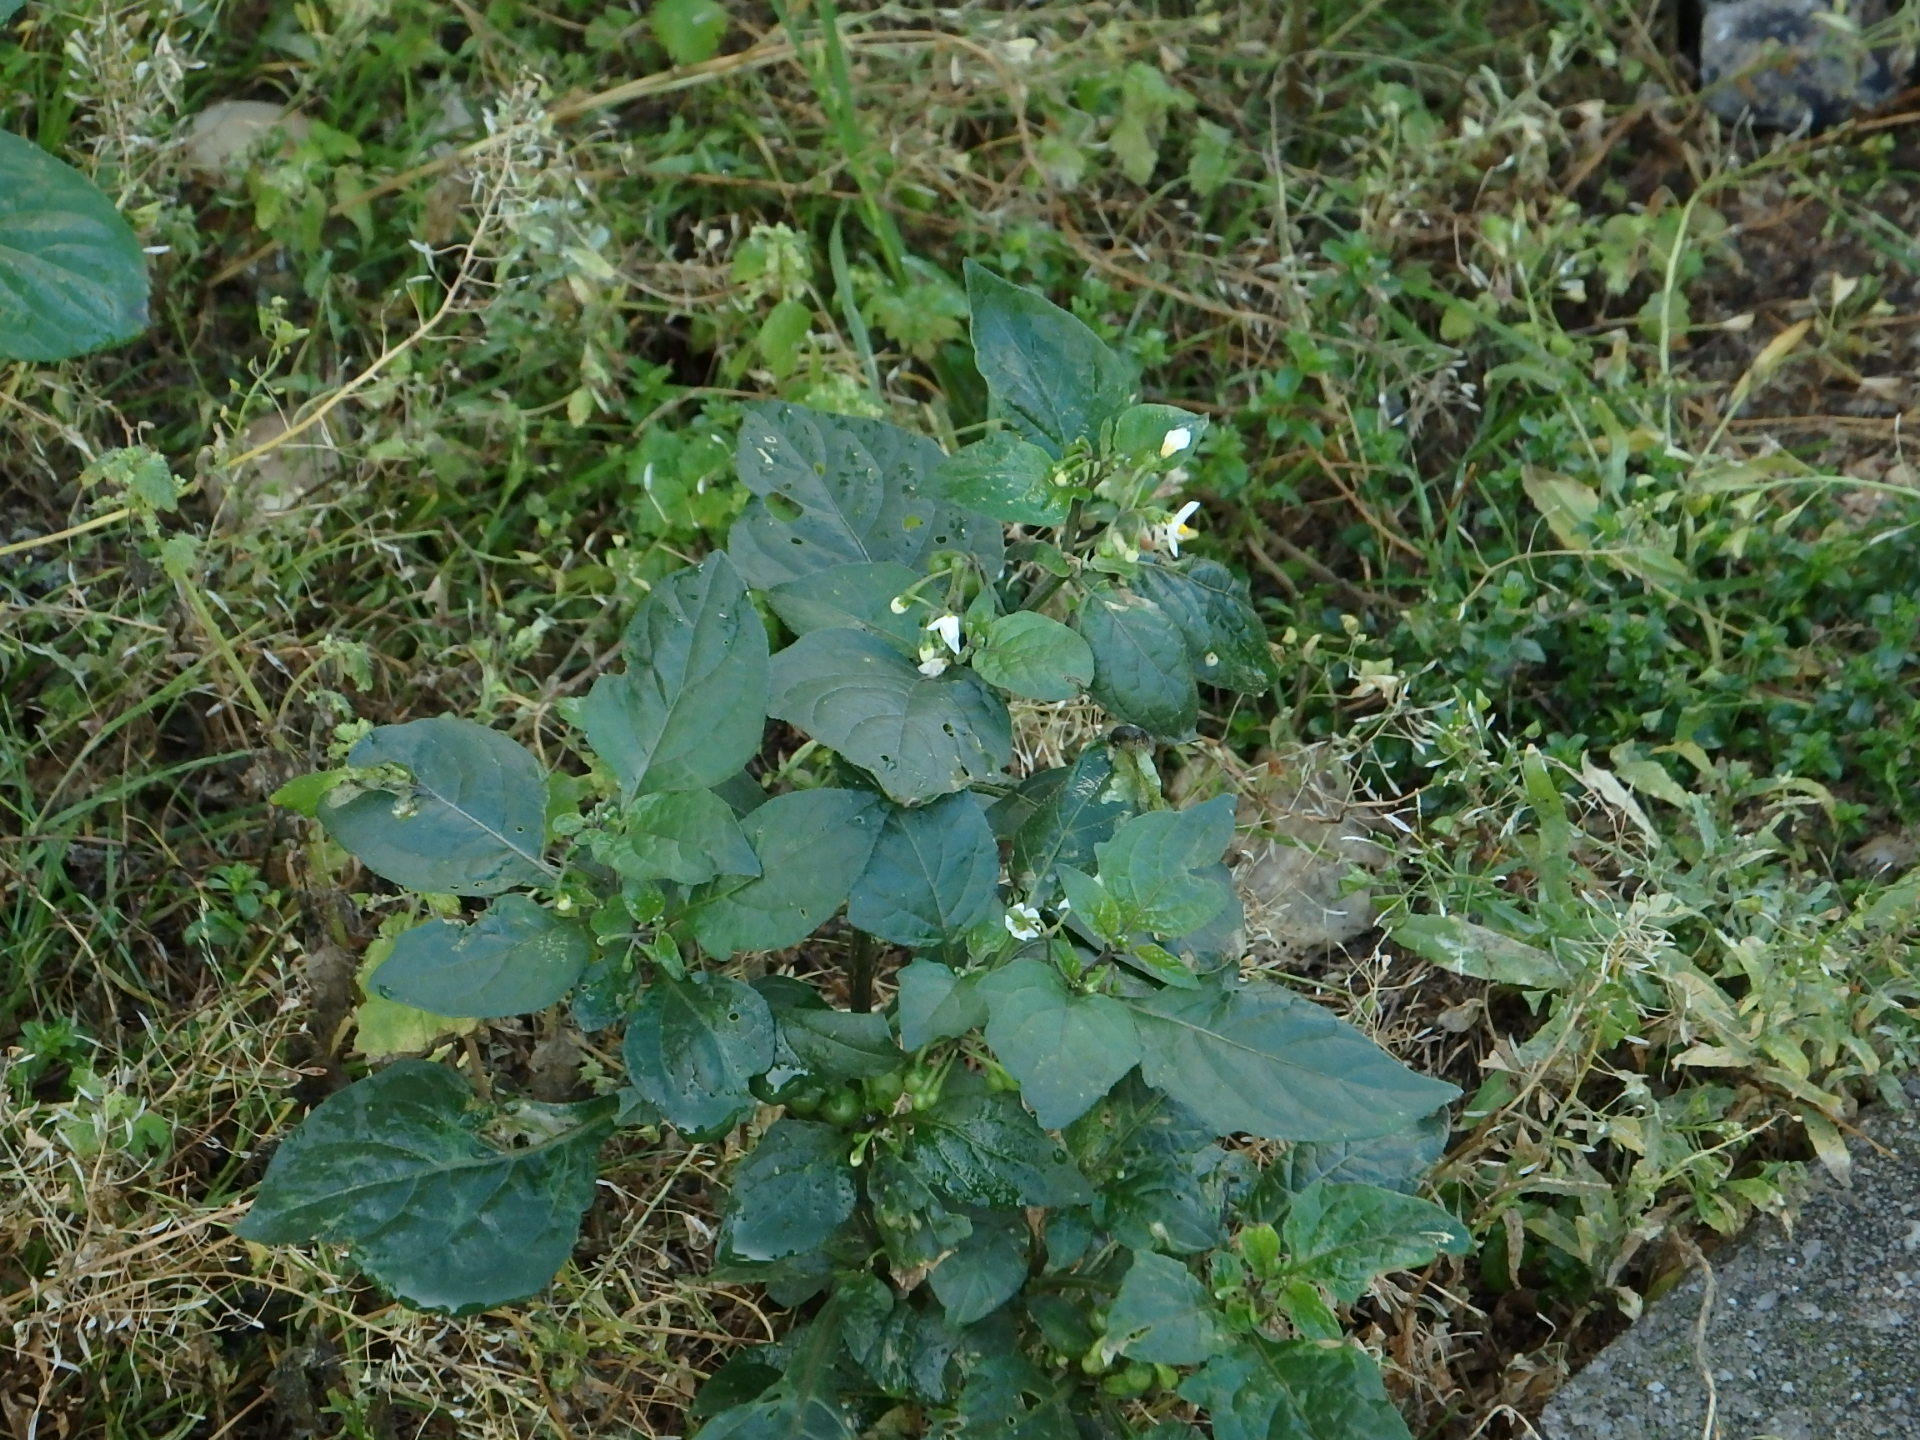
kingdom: Plantae
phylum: Tracheophyta
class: Magnoliopsida
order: Solanales
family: Solanaceae
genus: Solanum
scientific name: Solanum nigrum
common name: Black nightshade
